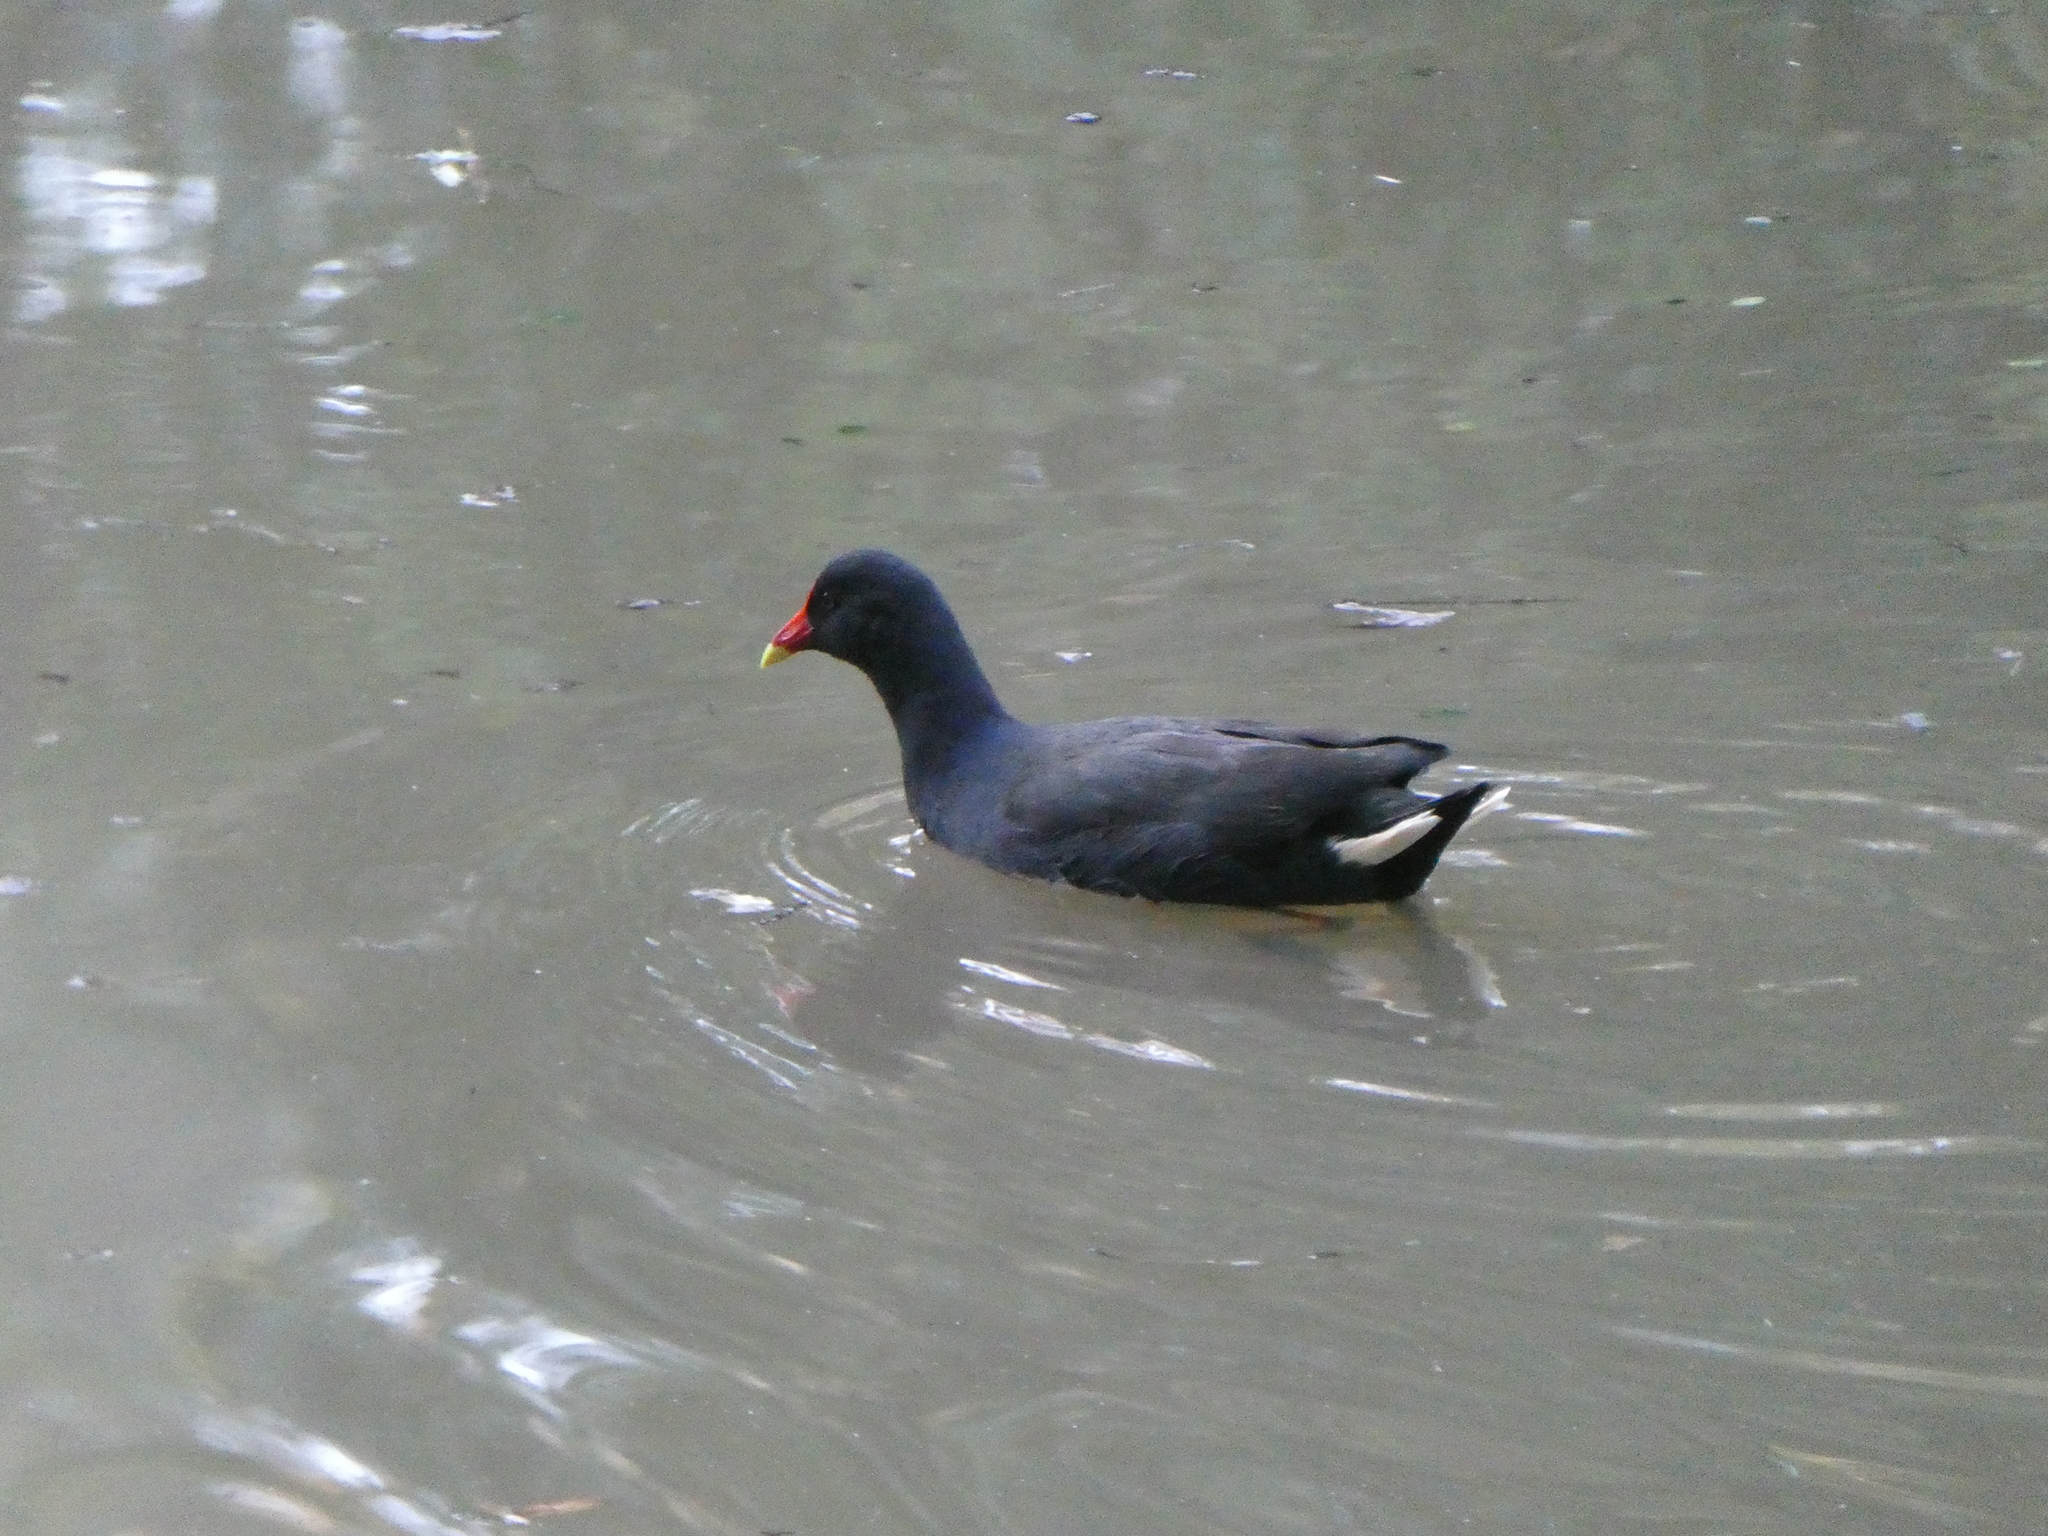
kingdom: Animalia
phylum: Chordata
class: Aves
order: Gruiformes
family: Rallidae
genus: Gallinula
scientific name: Gallinula tenebrosa
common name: Dusky moorhen
